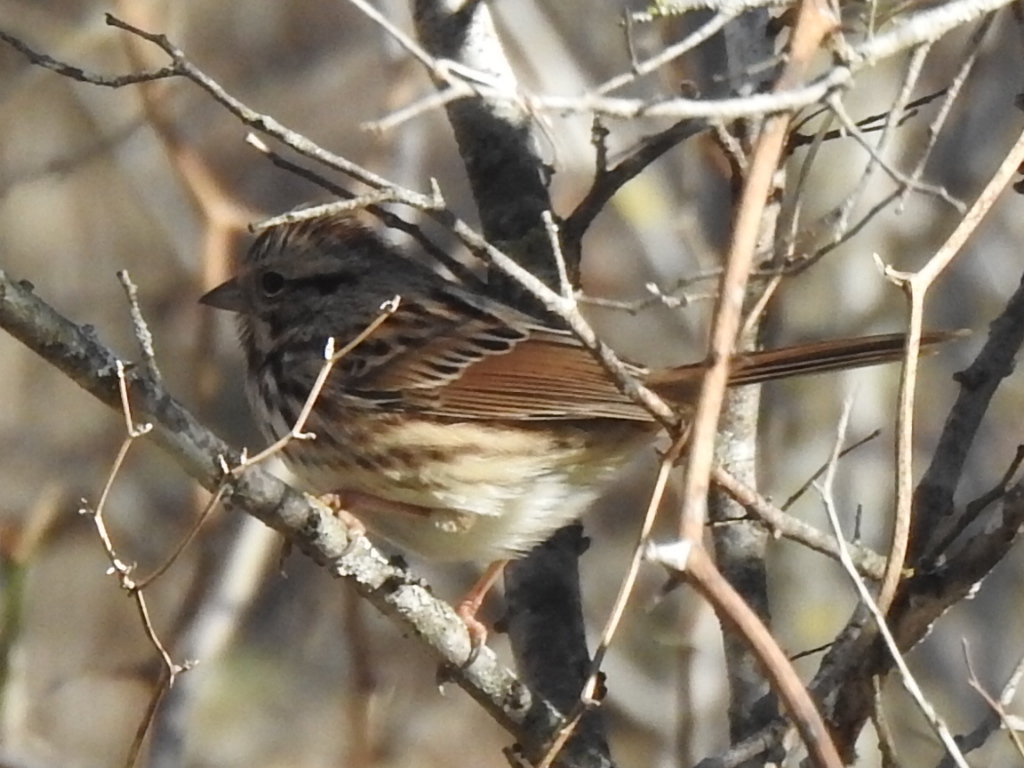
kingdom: Animalia
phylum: Chordata
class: Aves
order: Passeriformes
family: Passerellidae
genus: Melospiza
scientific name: Melospiza melodia
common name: Song sparrow
